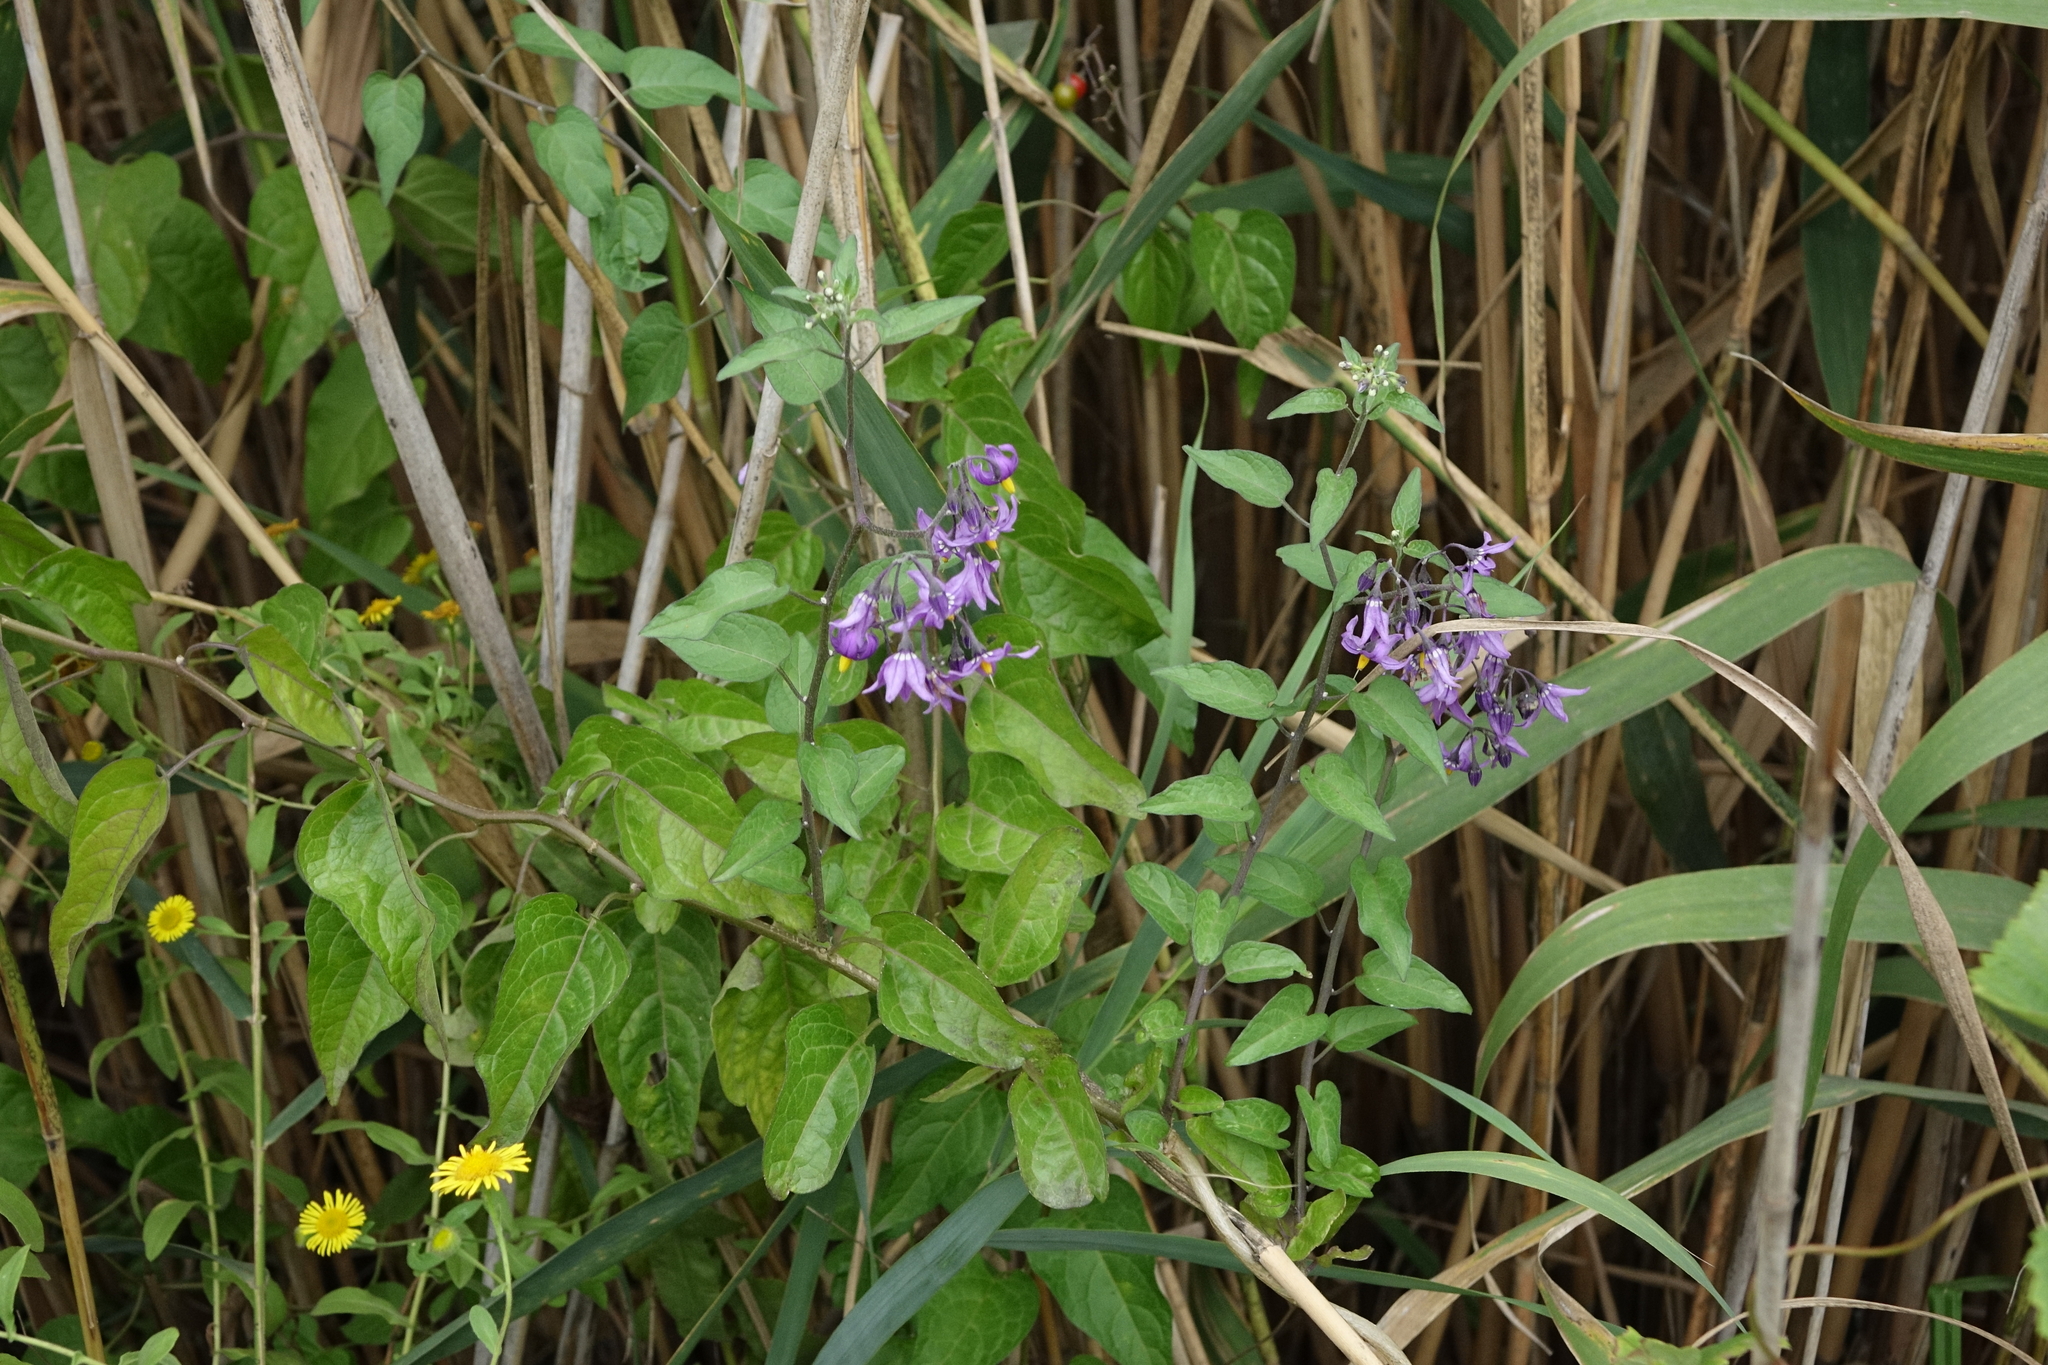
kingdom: Plantae
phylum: Tracheophyta
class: Magnoliopsida
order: Solanales
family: Solanaceae
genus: Solanum
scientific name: Solanum dulcamara
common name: Climbing nightshade
